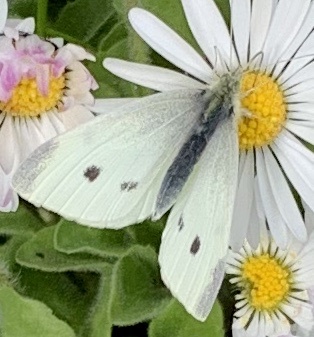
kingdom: Animalia
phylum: Arthropoda
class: Insecta
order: Lepidoptera
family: Pieridae
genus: Pieris
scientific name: Pieris rapae
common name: Small white
